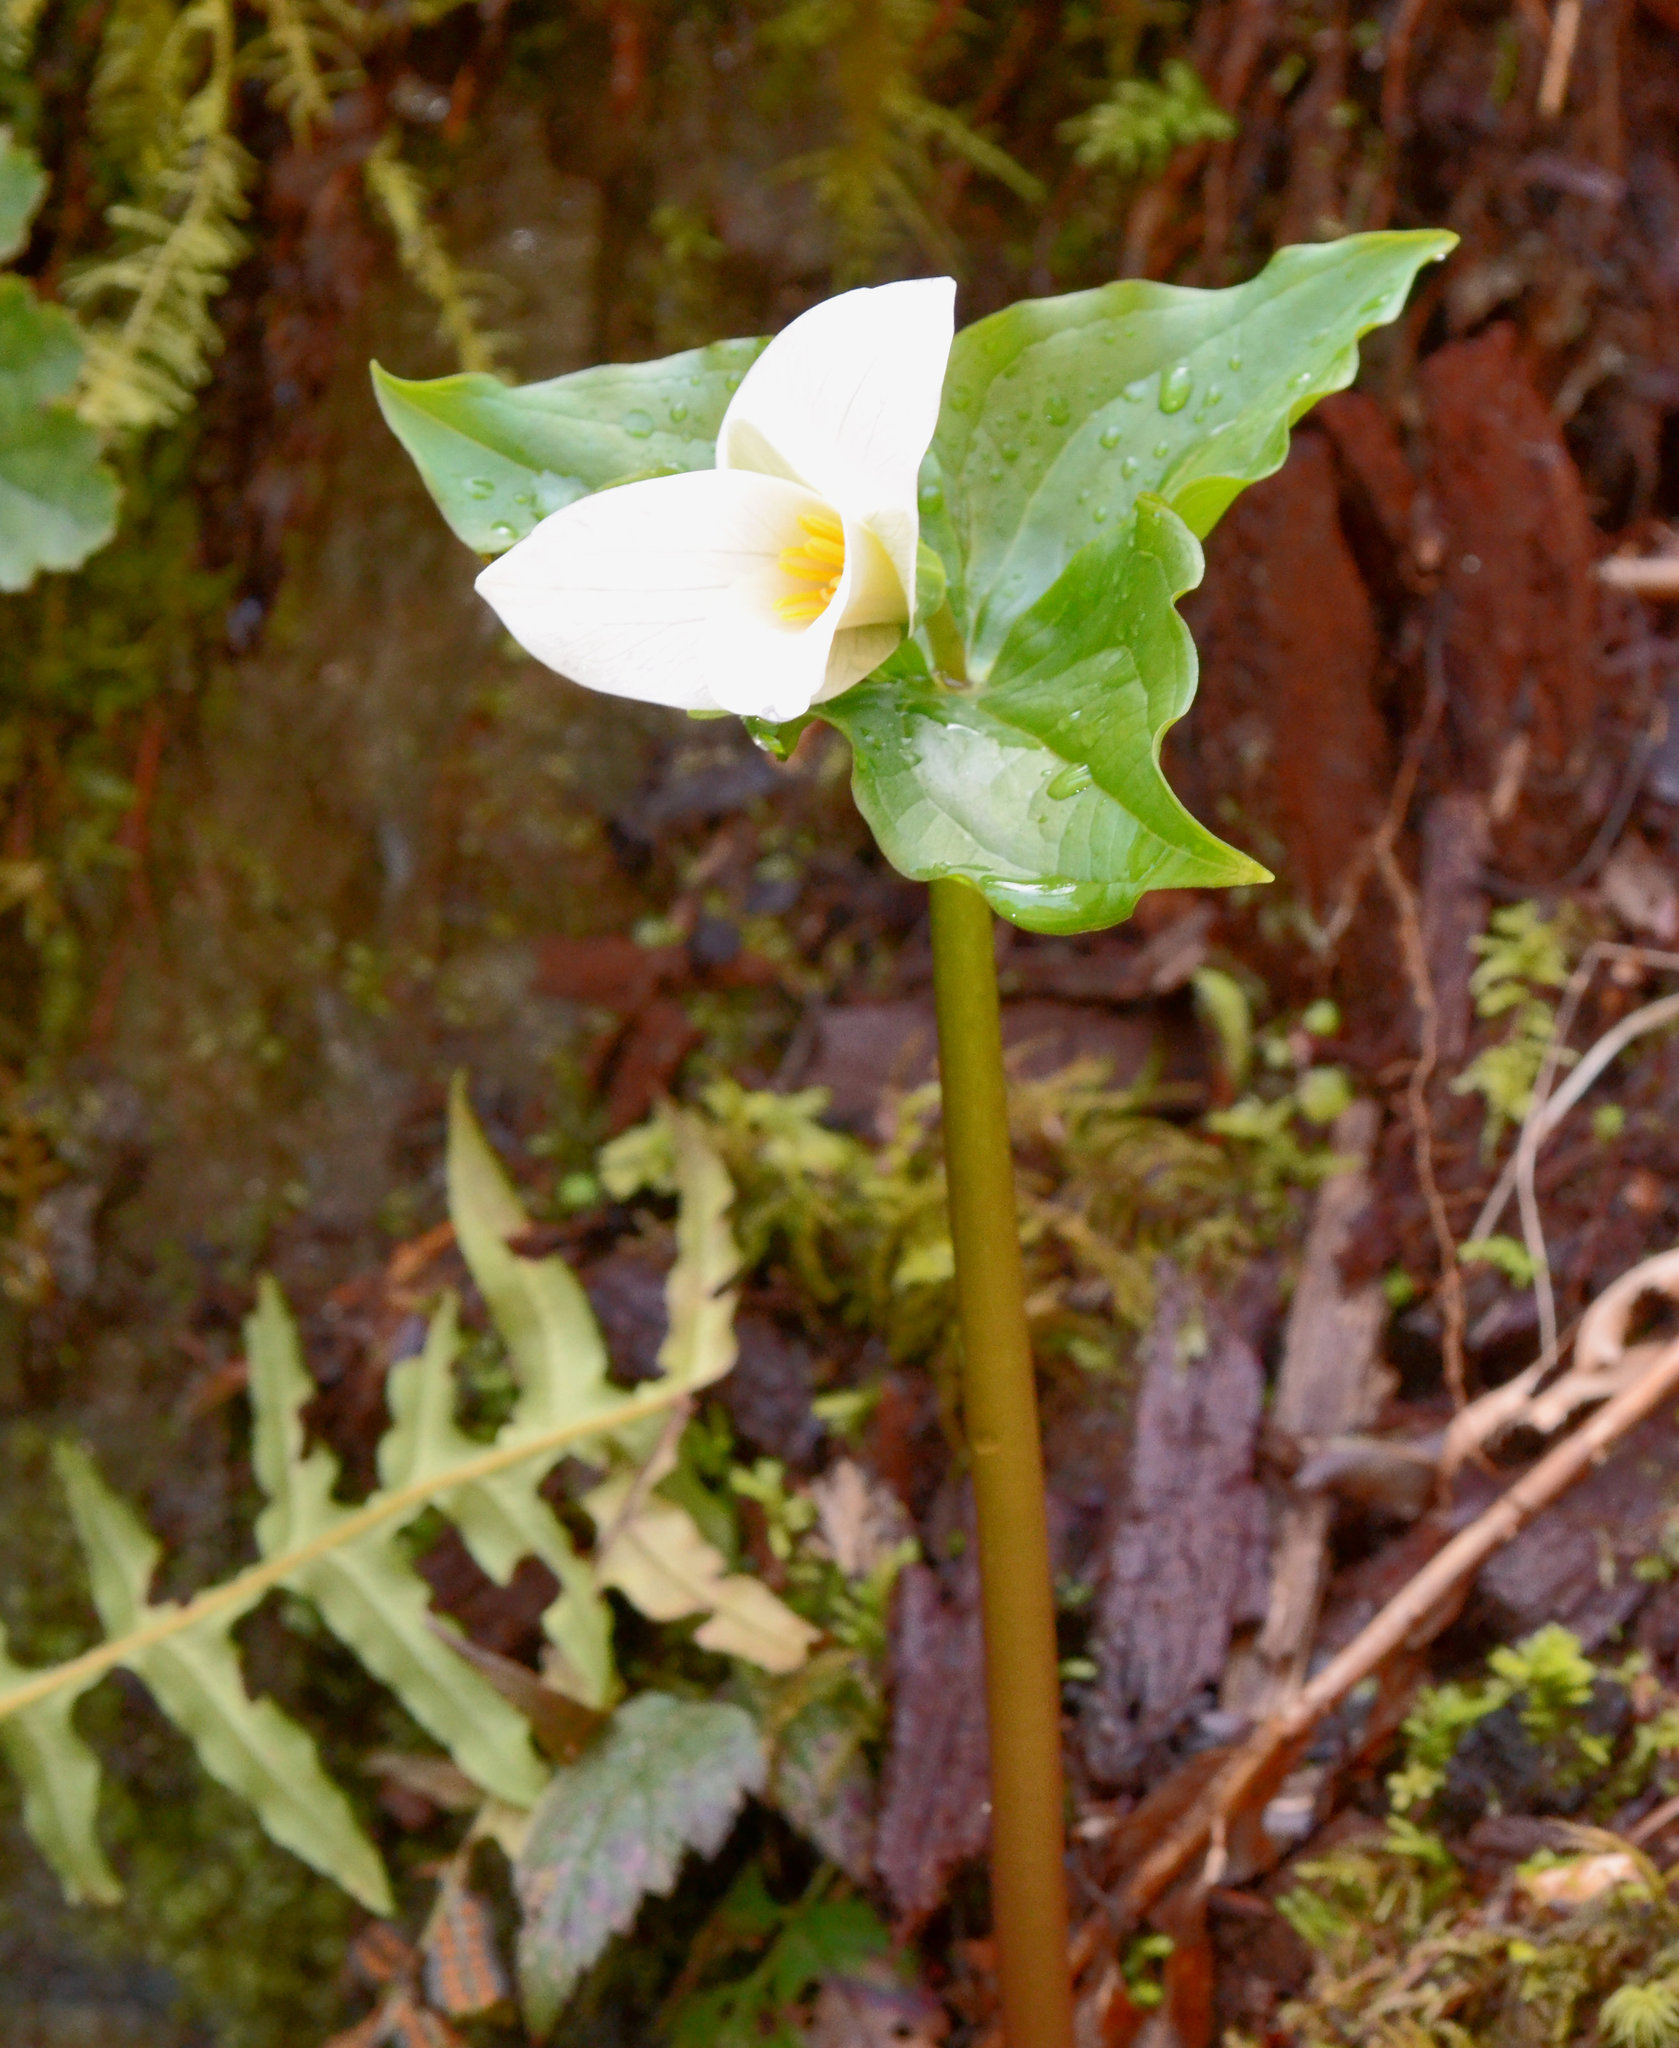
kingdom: Plantae
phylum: Tracheophyta
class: Liliopsida
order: Liliales
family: Melanthiaceae
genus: Trillium
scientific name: Trillium ovatum
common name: Pacific trillium
